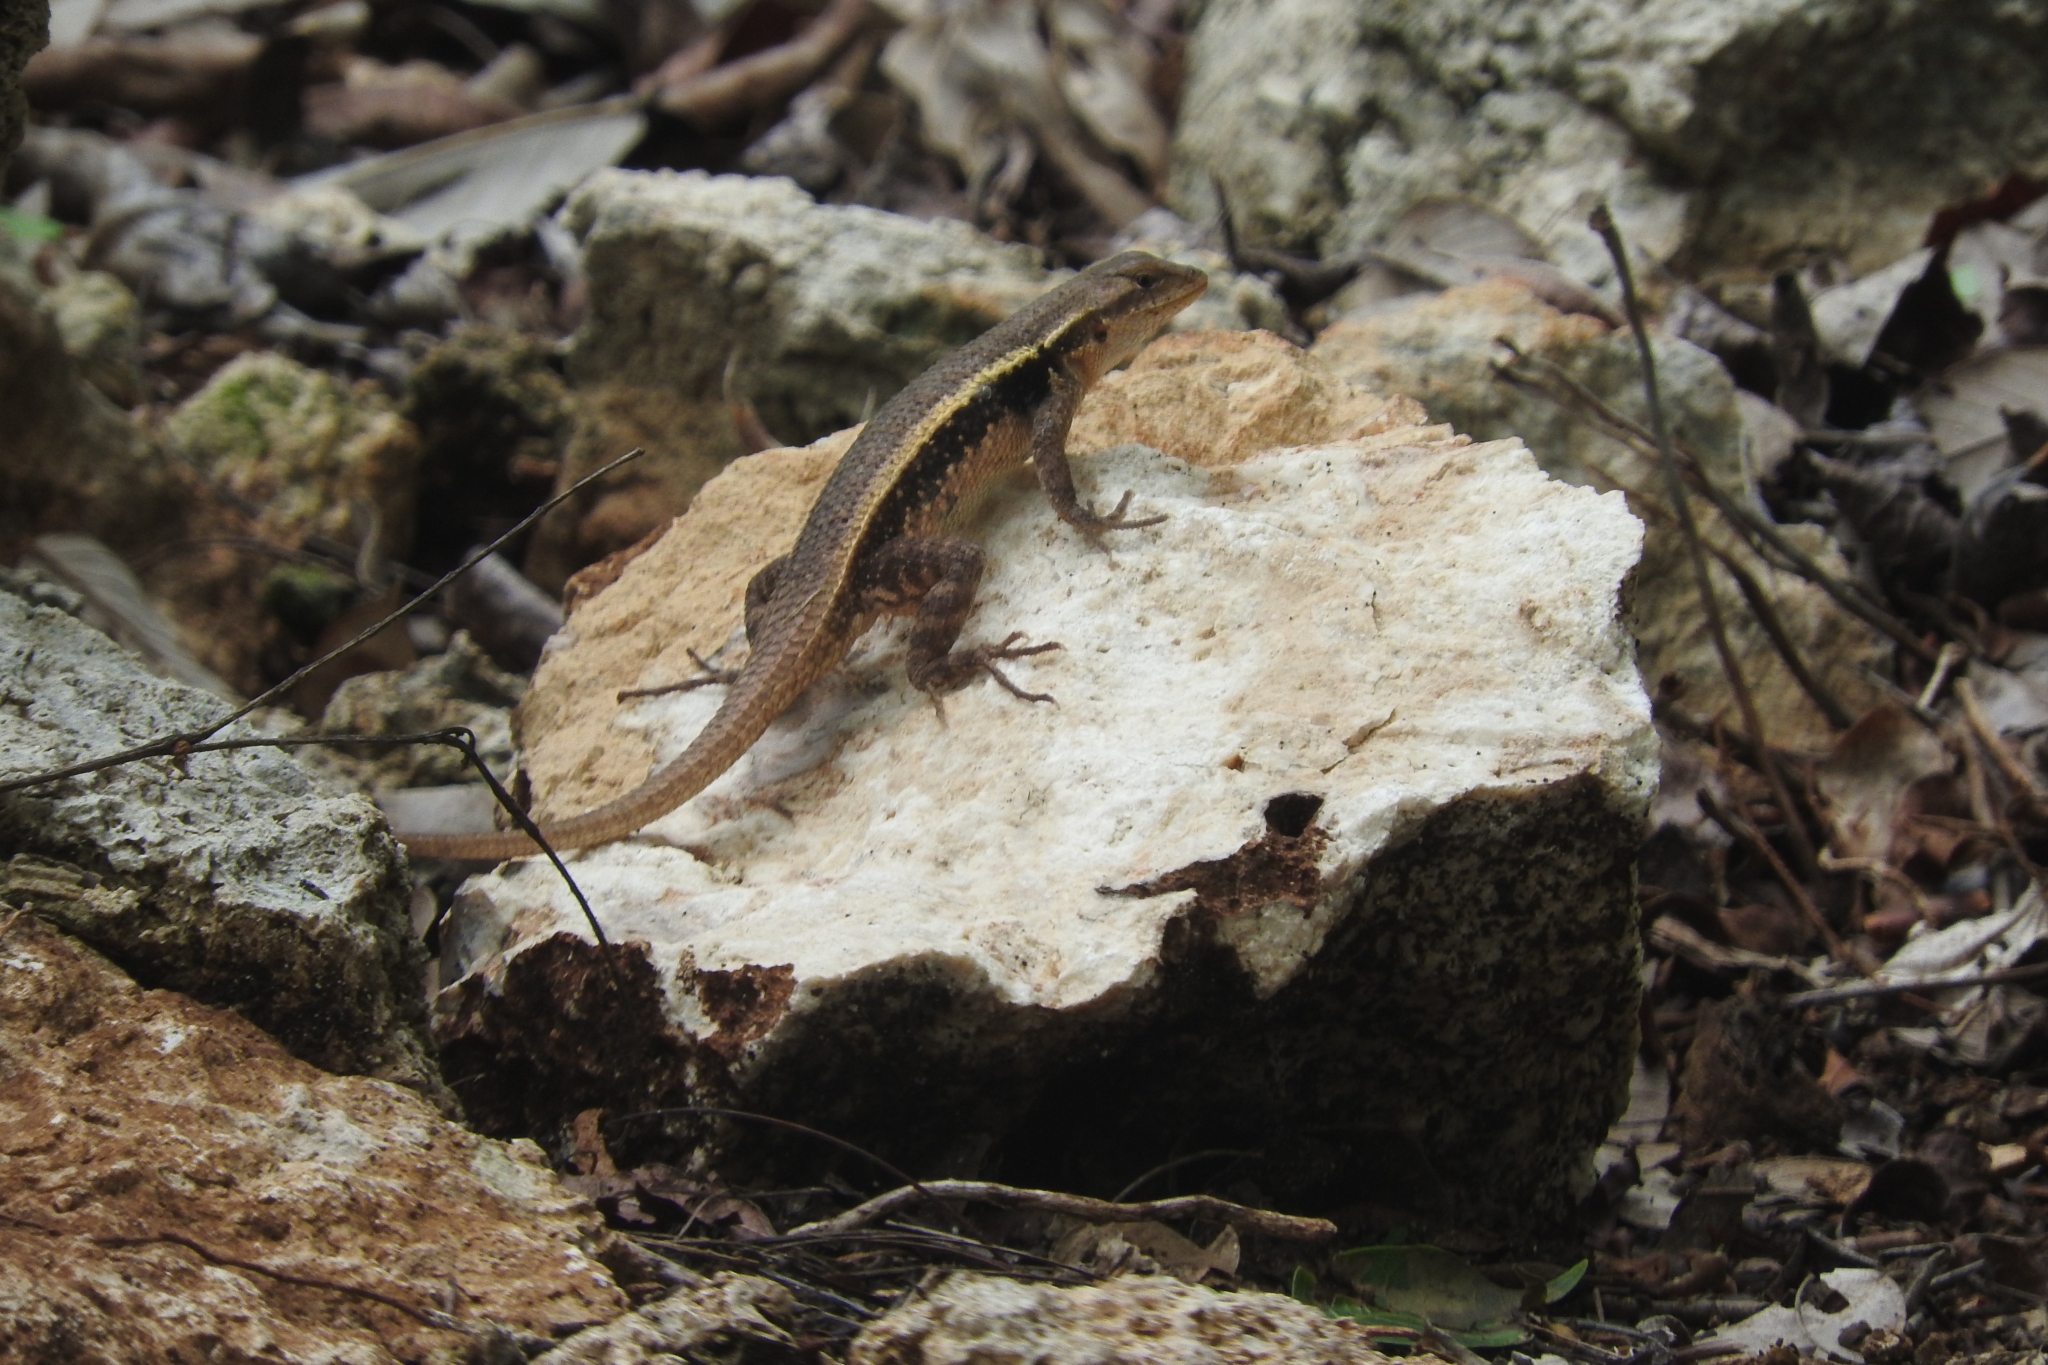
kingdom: Animalia
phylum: Chordata
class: Squamata
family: Phrynosomatidae
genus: Sceloporus
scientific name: Sceloporus chrysostictus
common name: Yellow-spotted spiny lizard
